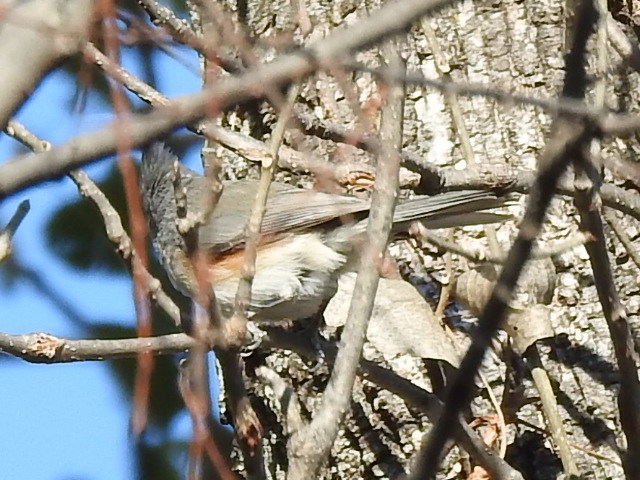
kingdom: Animalia
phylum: Chordata
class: Aves
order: Passeriformes
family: Paridae
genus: Baeolophus
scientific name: Baeolophus bicolor
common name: Tufted titmouse
